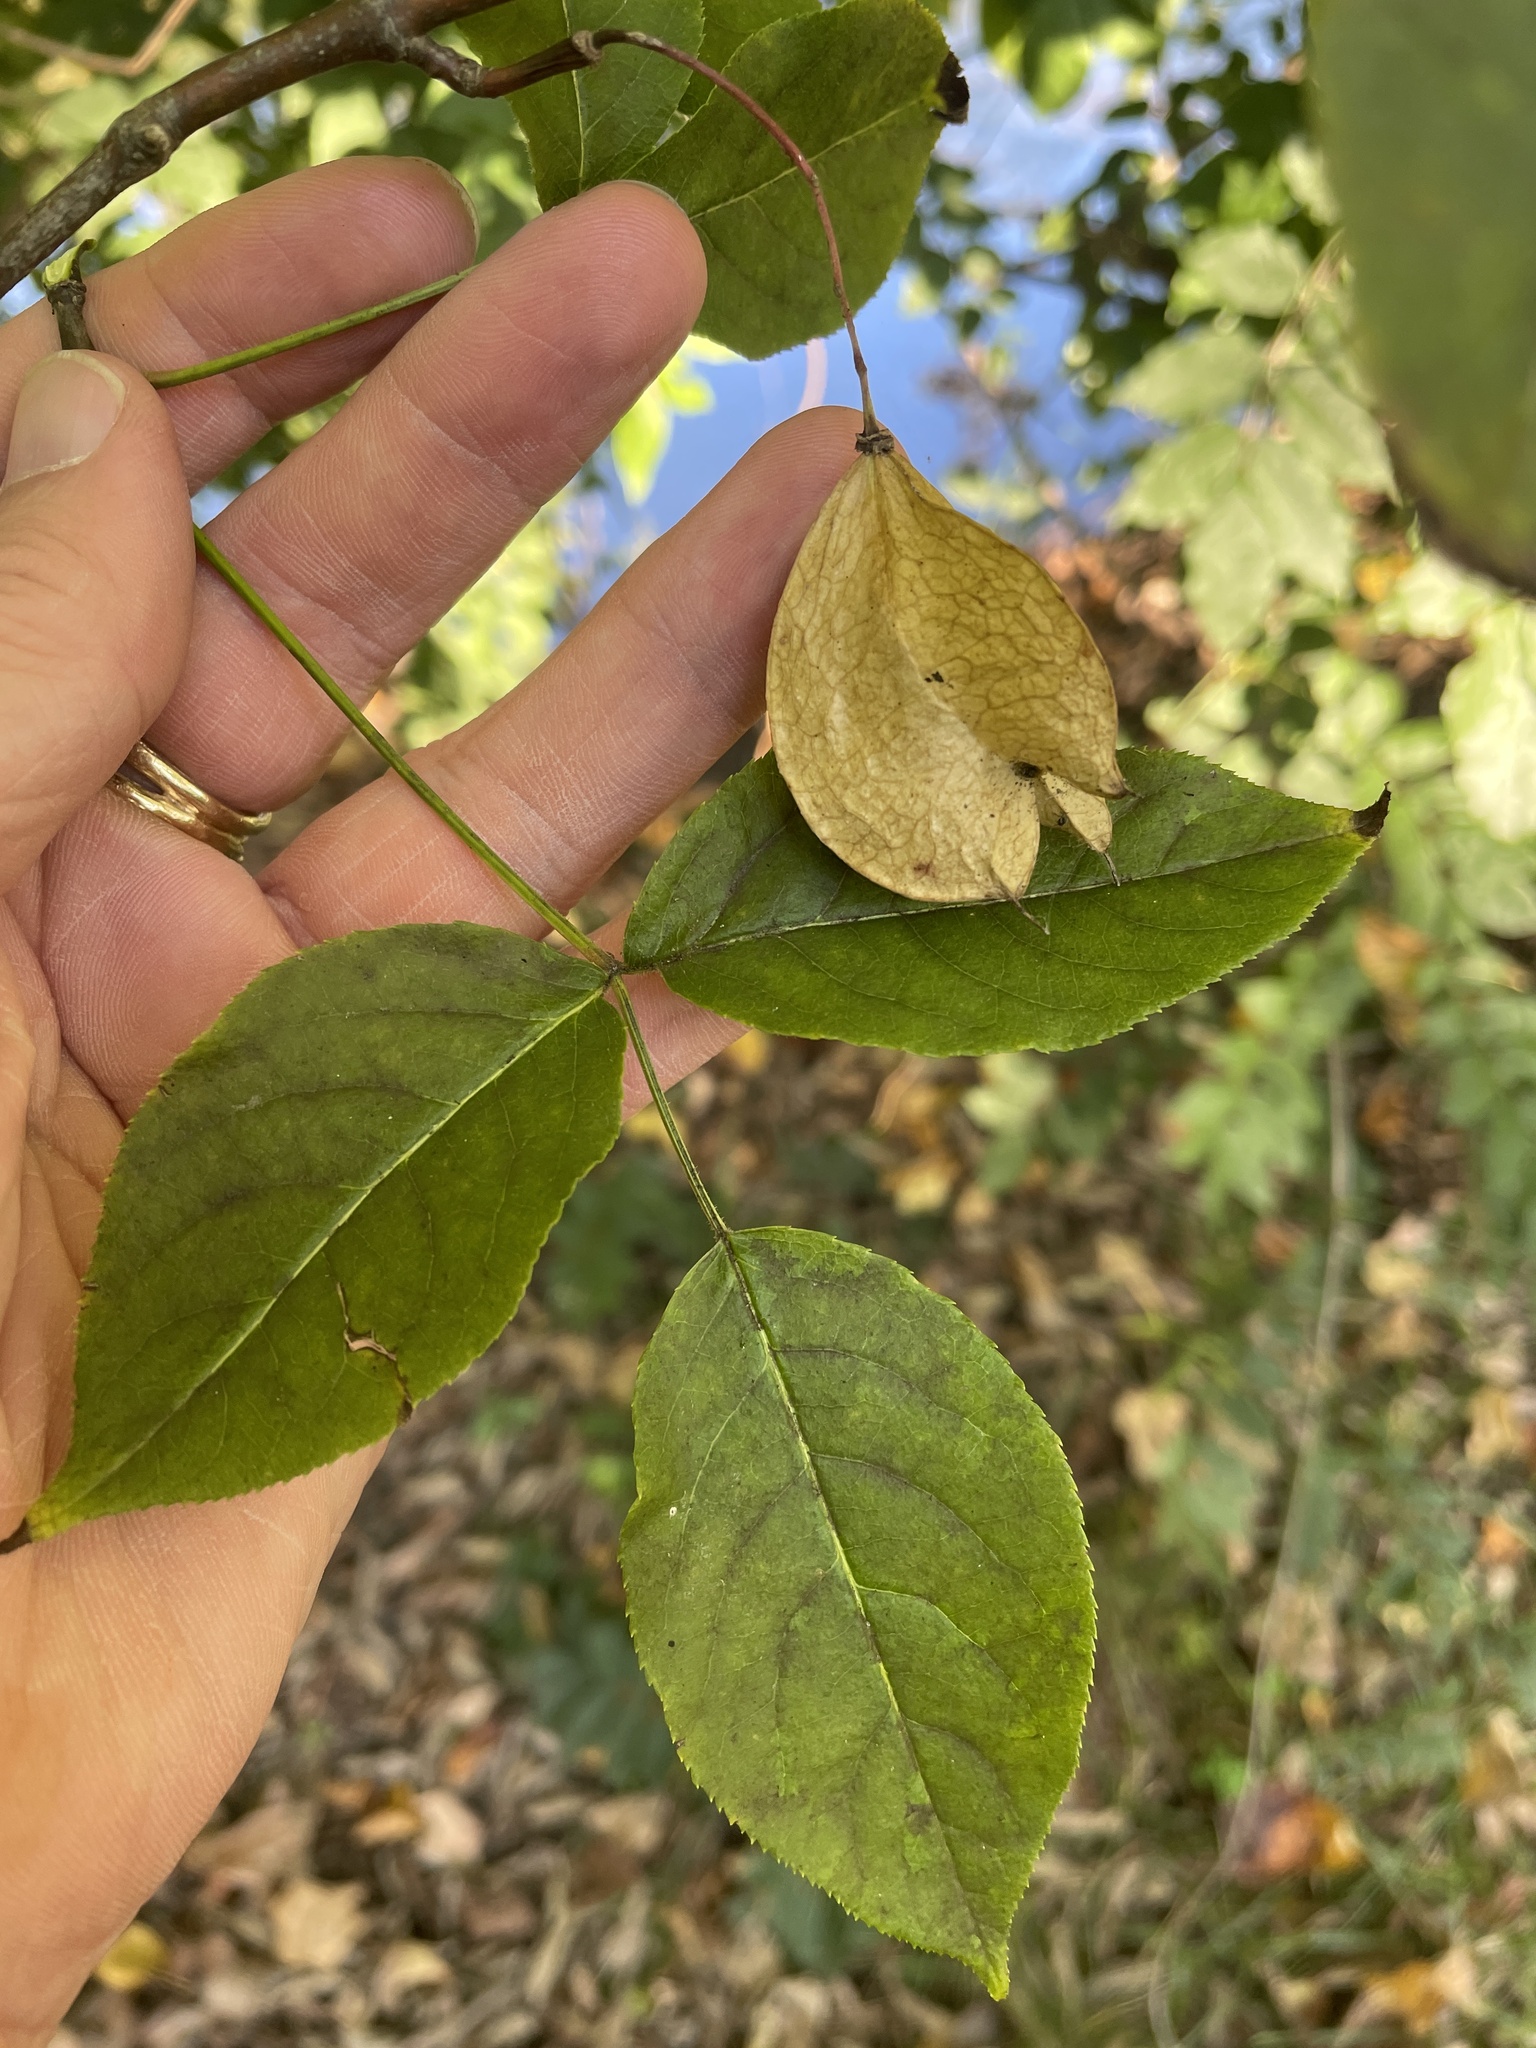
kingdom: Plantae
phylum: Tracheophyta
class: Magnoliopsida
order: Crossosomatales
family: Staphyleaceae
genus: Staphylea
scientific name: Staphylea trifolia
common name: American bladdernut
